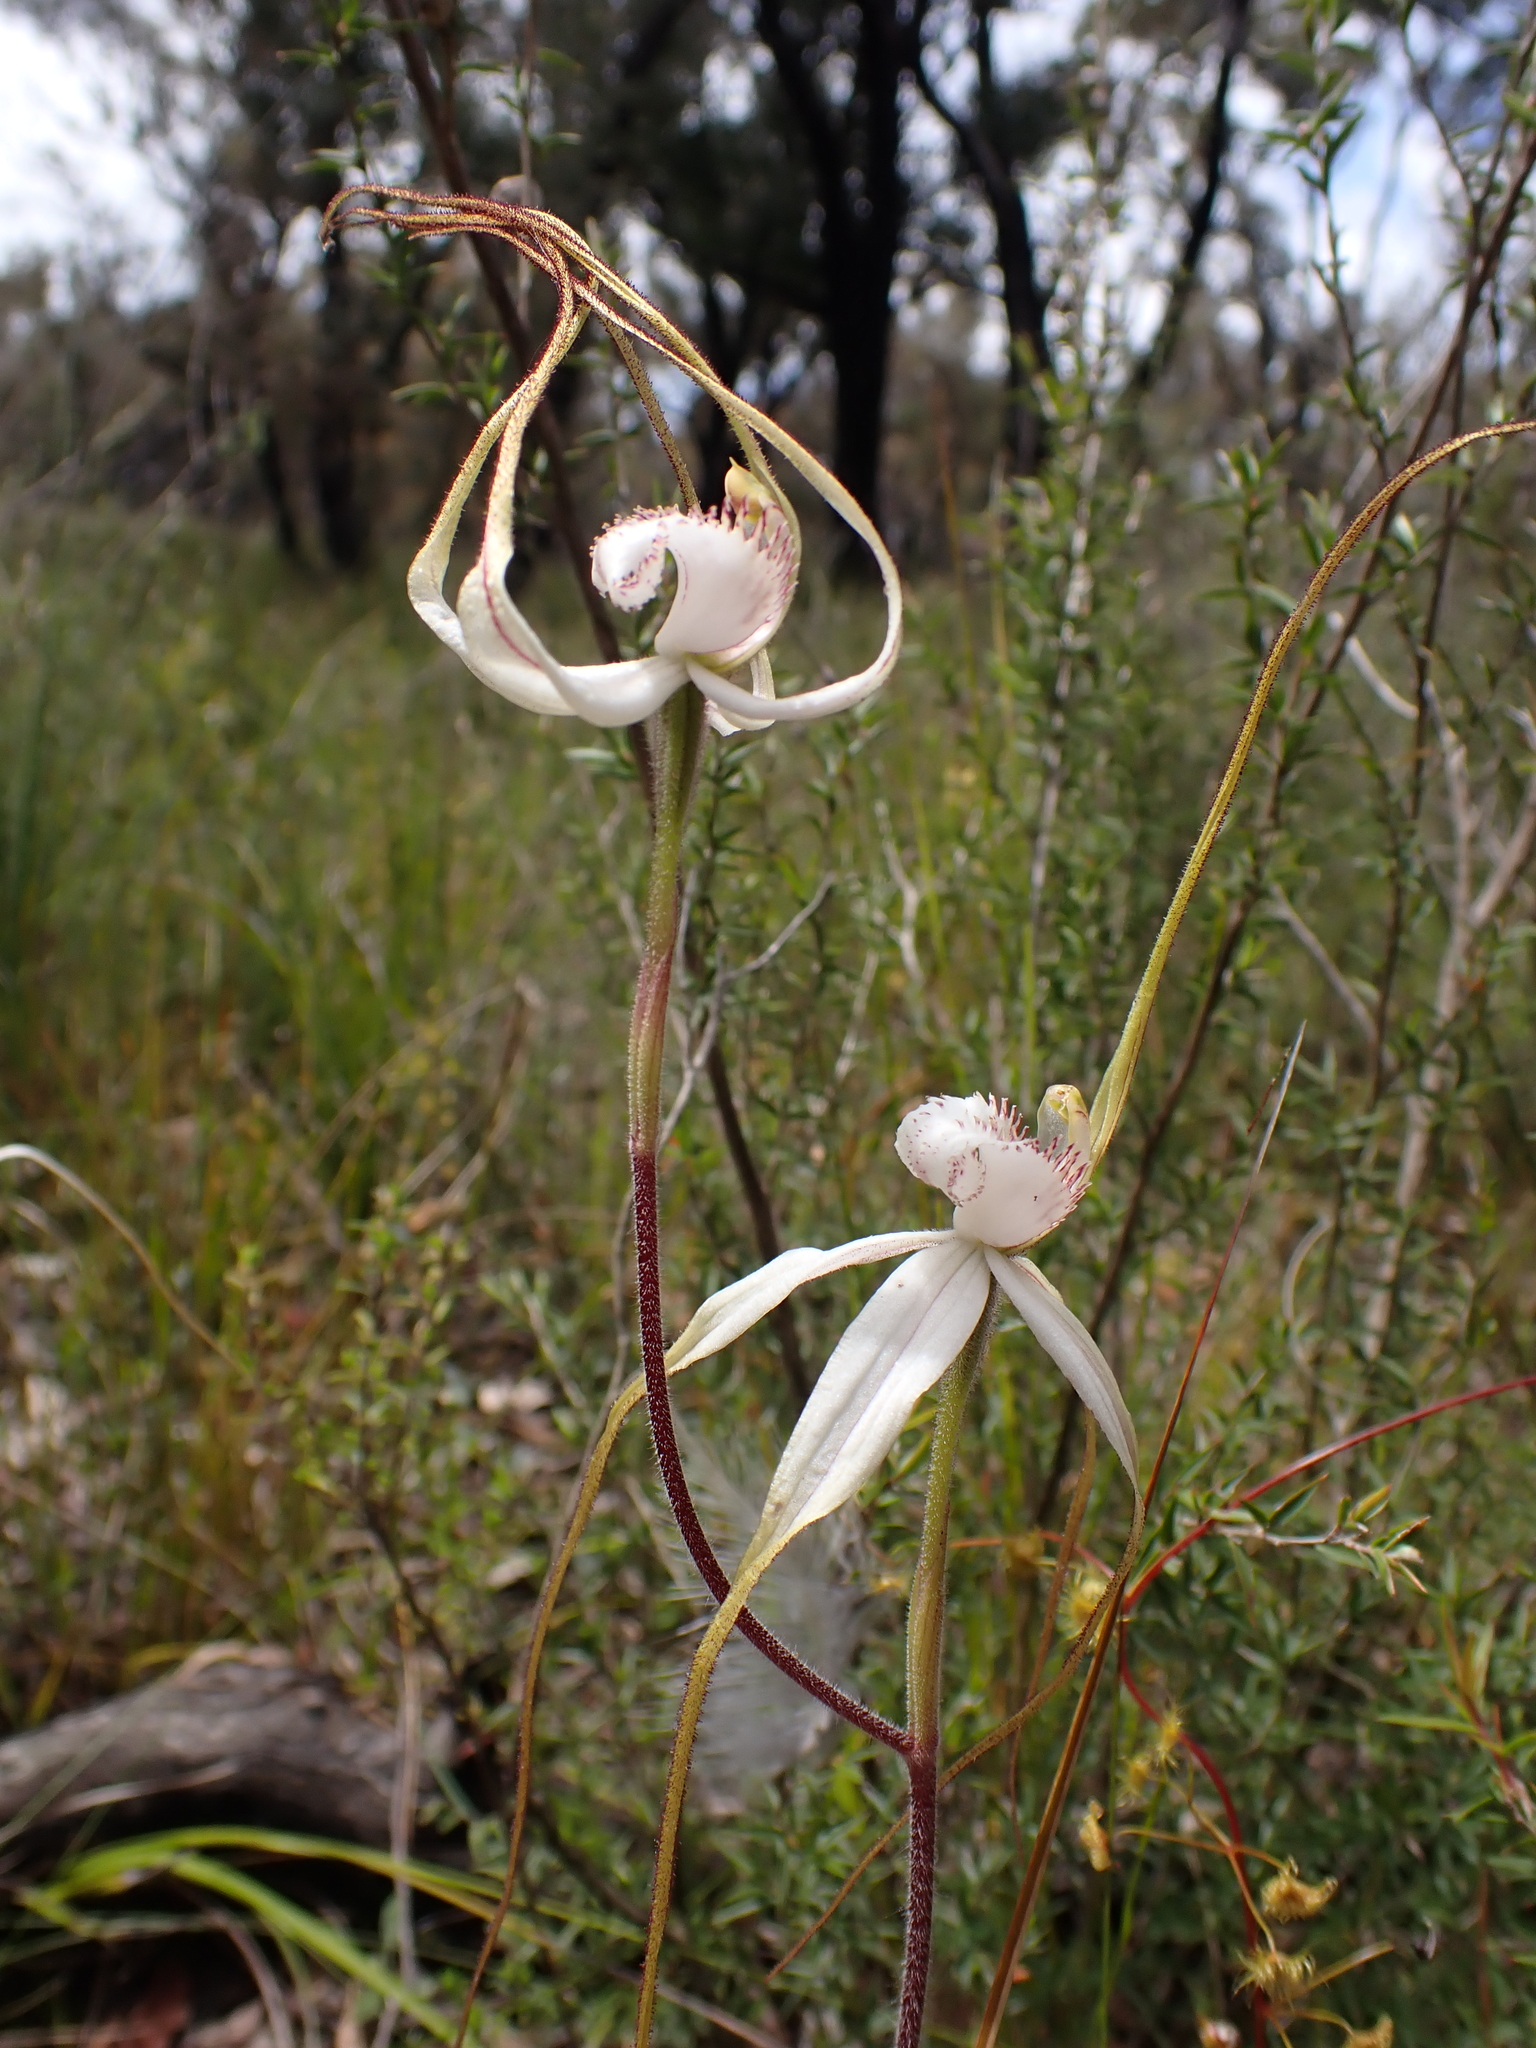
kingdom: Plantae
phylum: Tracheophyta
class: Liliopsida
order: Asparagales
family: Orchidaceae
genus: Caladenia
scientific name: Caladenia venusta
